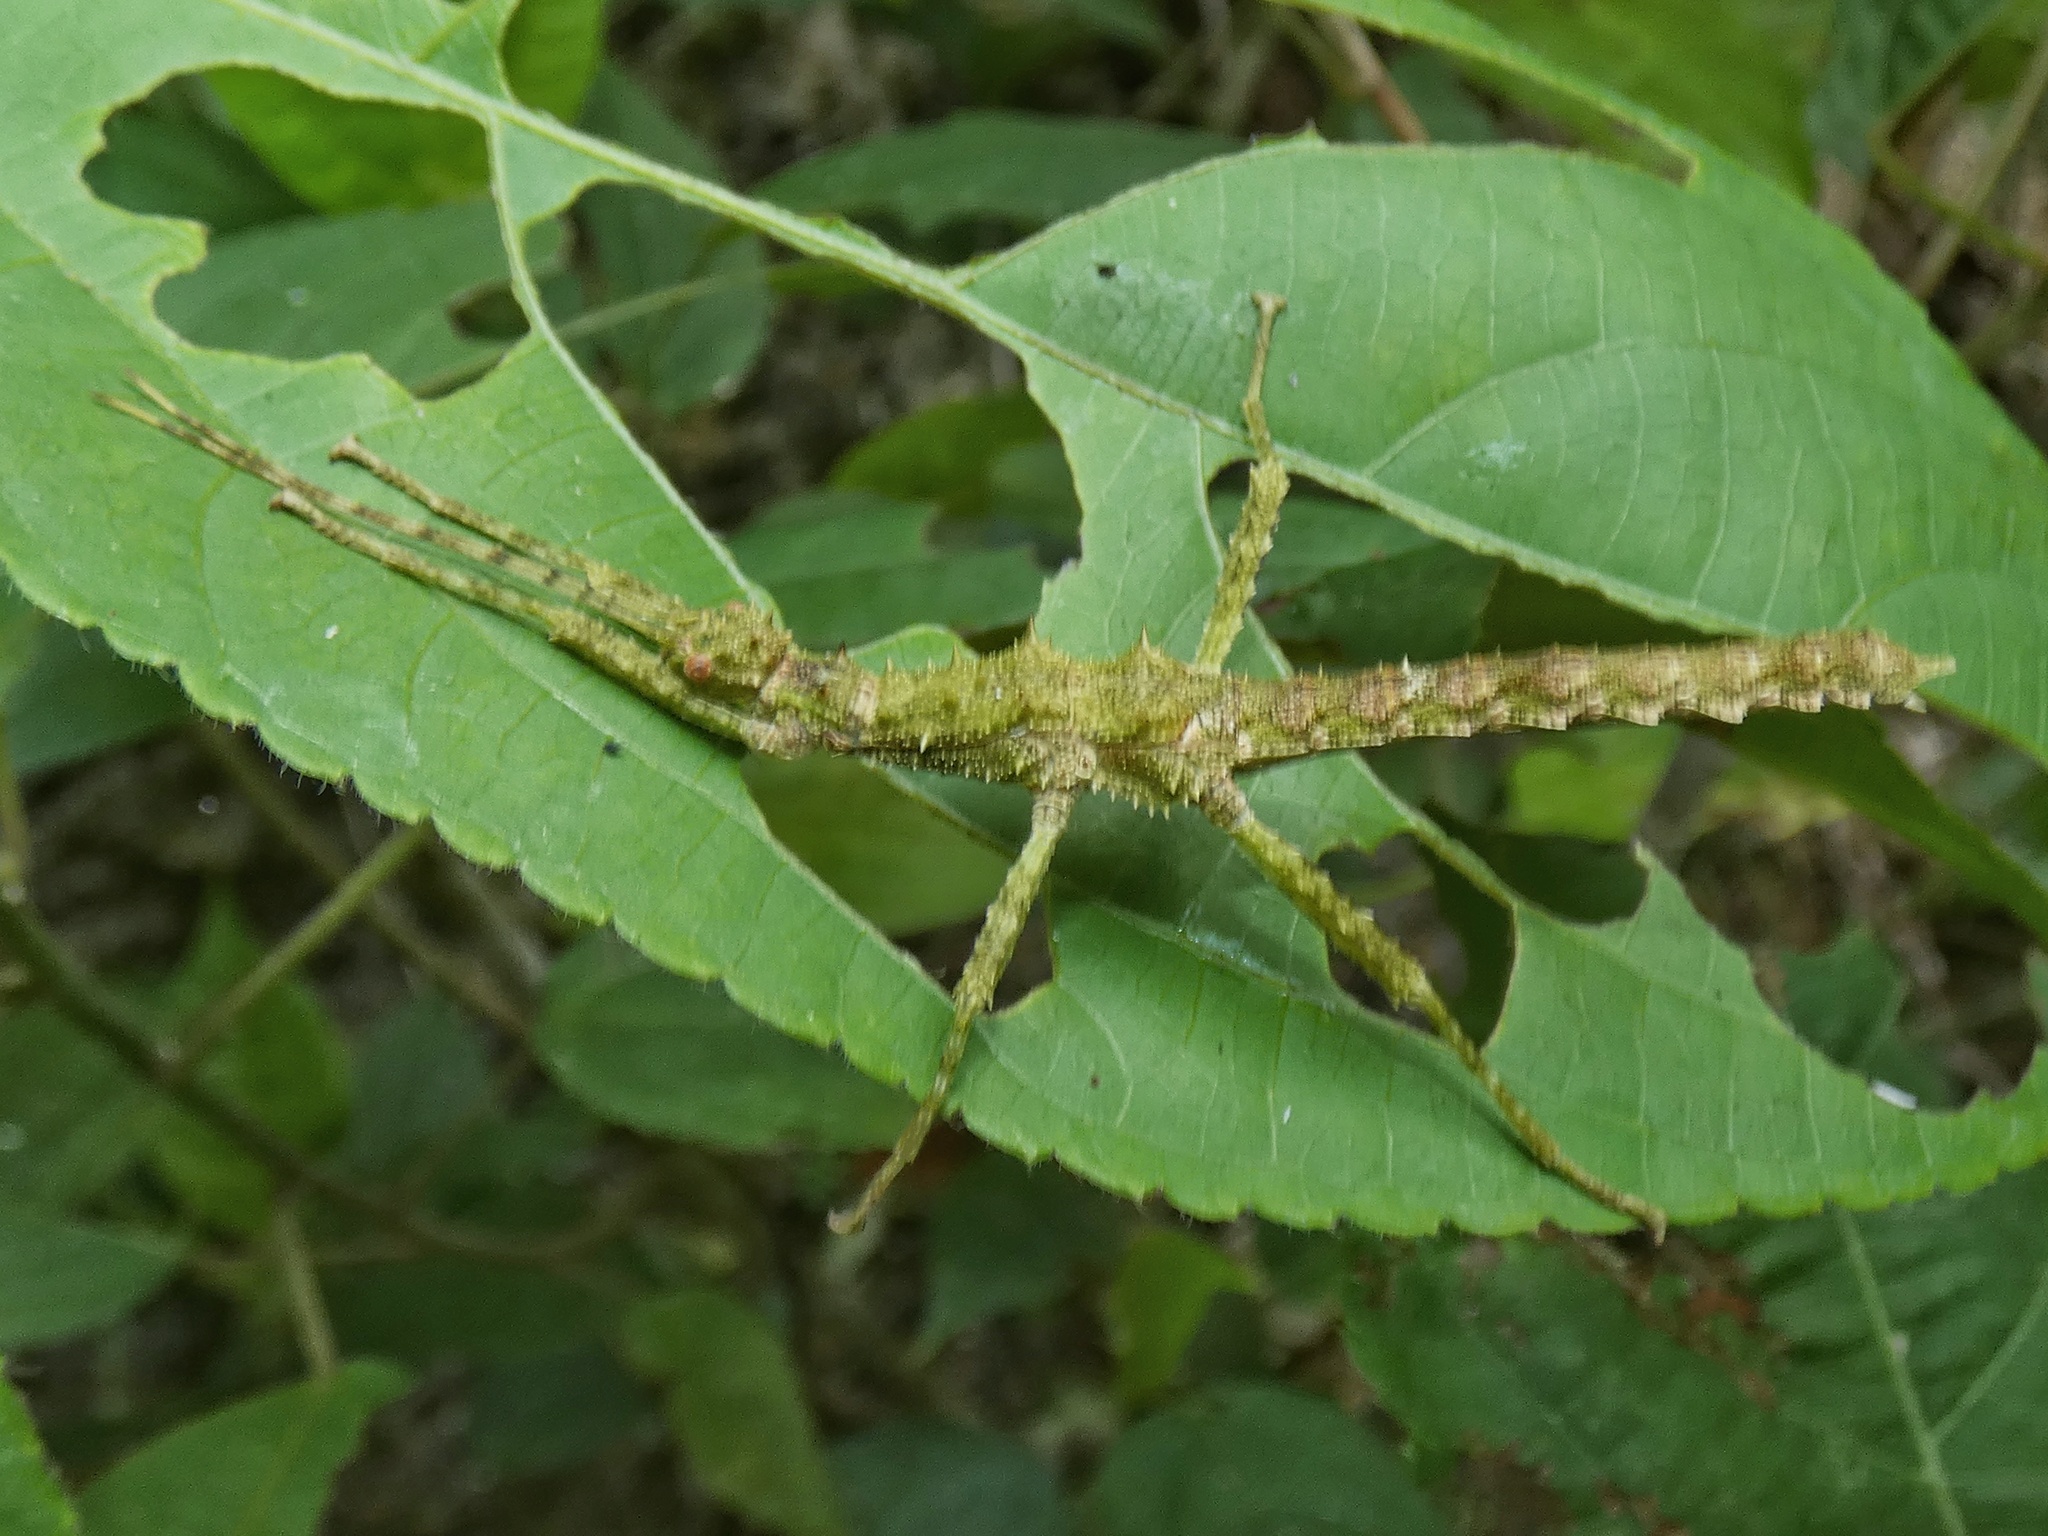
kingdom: Animalia
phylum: Arthropoda
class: Insecta
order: Phasmida
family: Heteropterygidae
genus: Obrimus
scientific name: Obrimus bicolanus
